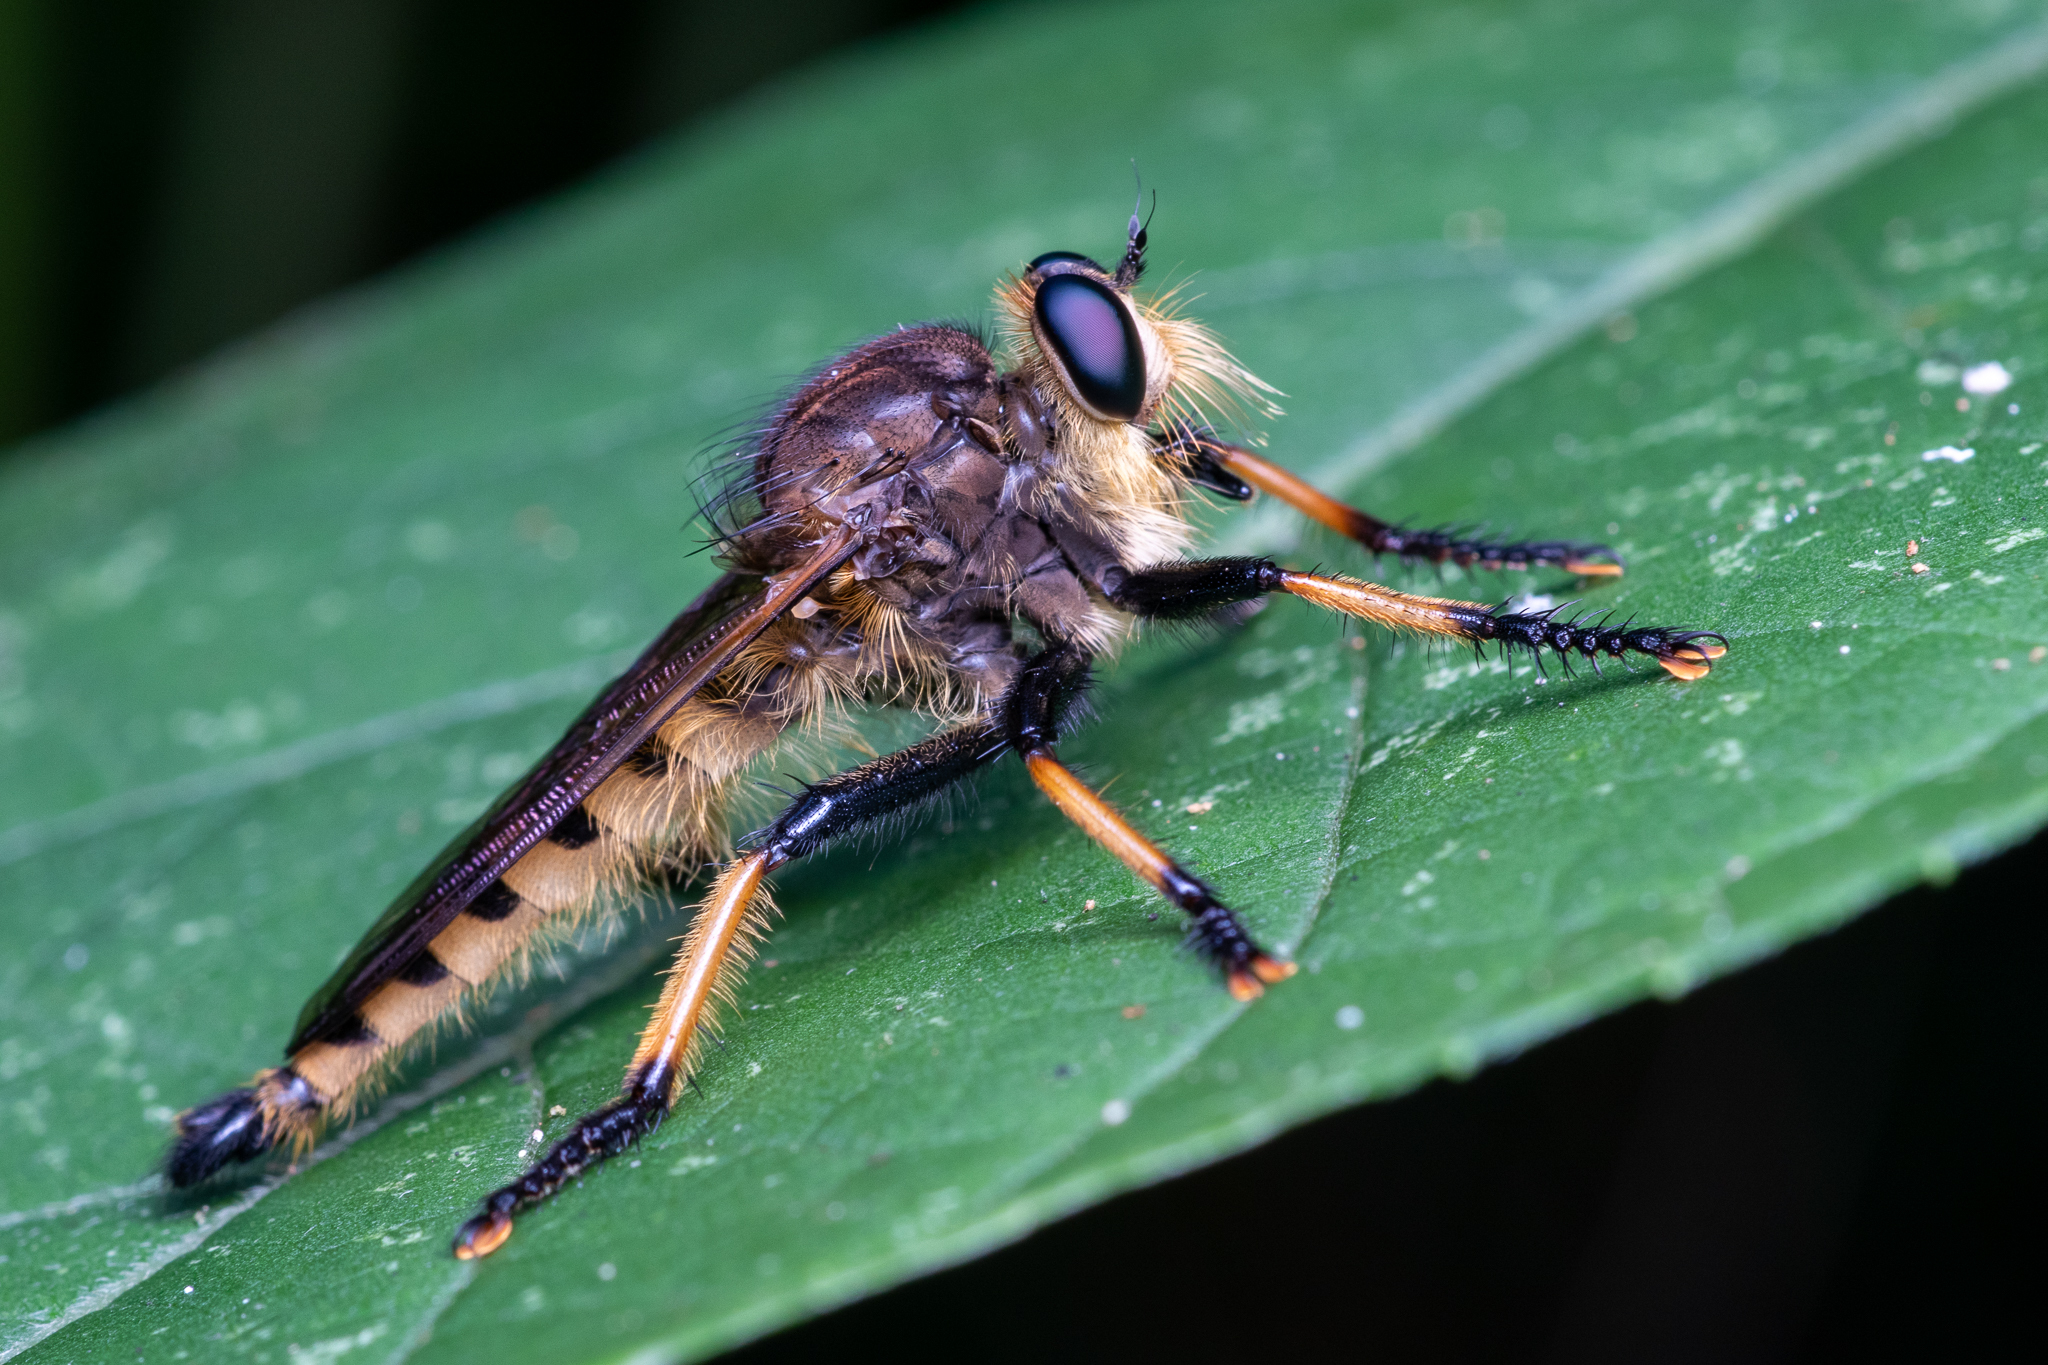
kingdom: Animalia
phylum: Arthropoda
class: Insecta
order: Diptera
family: Asilidae
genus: Promachus
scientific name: Promachus rufipes
